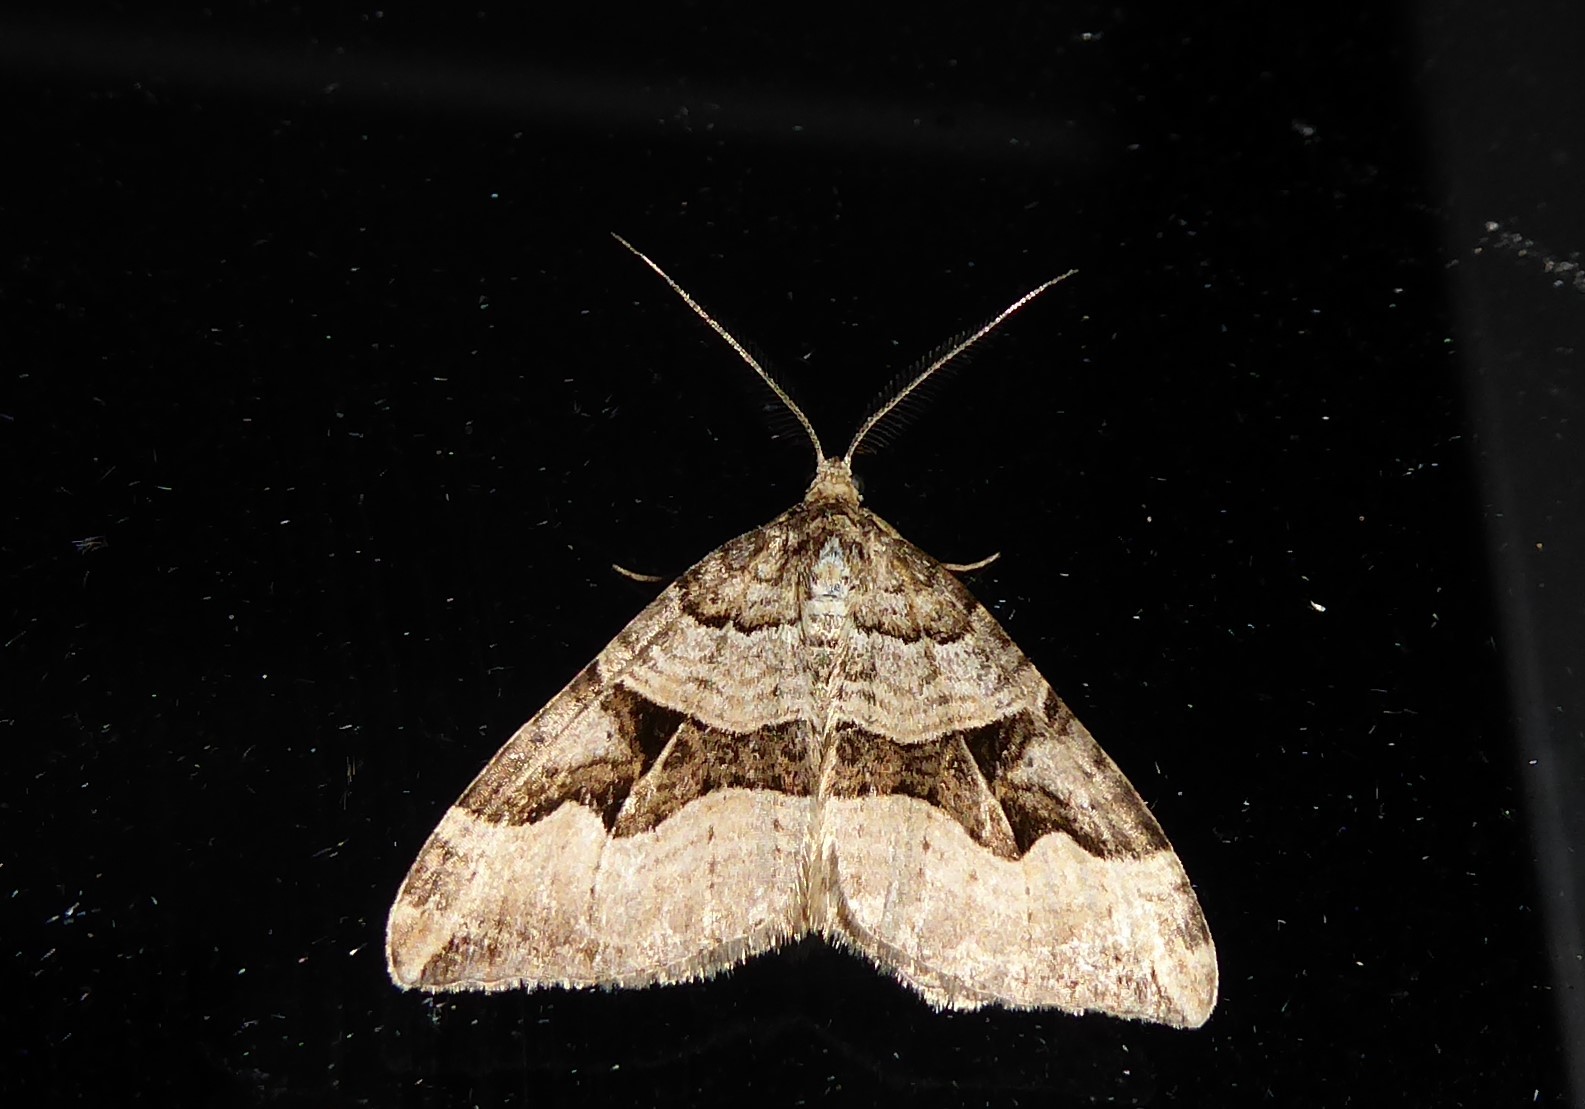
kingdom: Animalia
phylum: Arthropoda
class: Insecta
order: Lepidoptera
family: Geometridae
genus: Xanthorhoe
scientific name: Xanthorhoe semifissata
